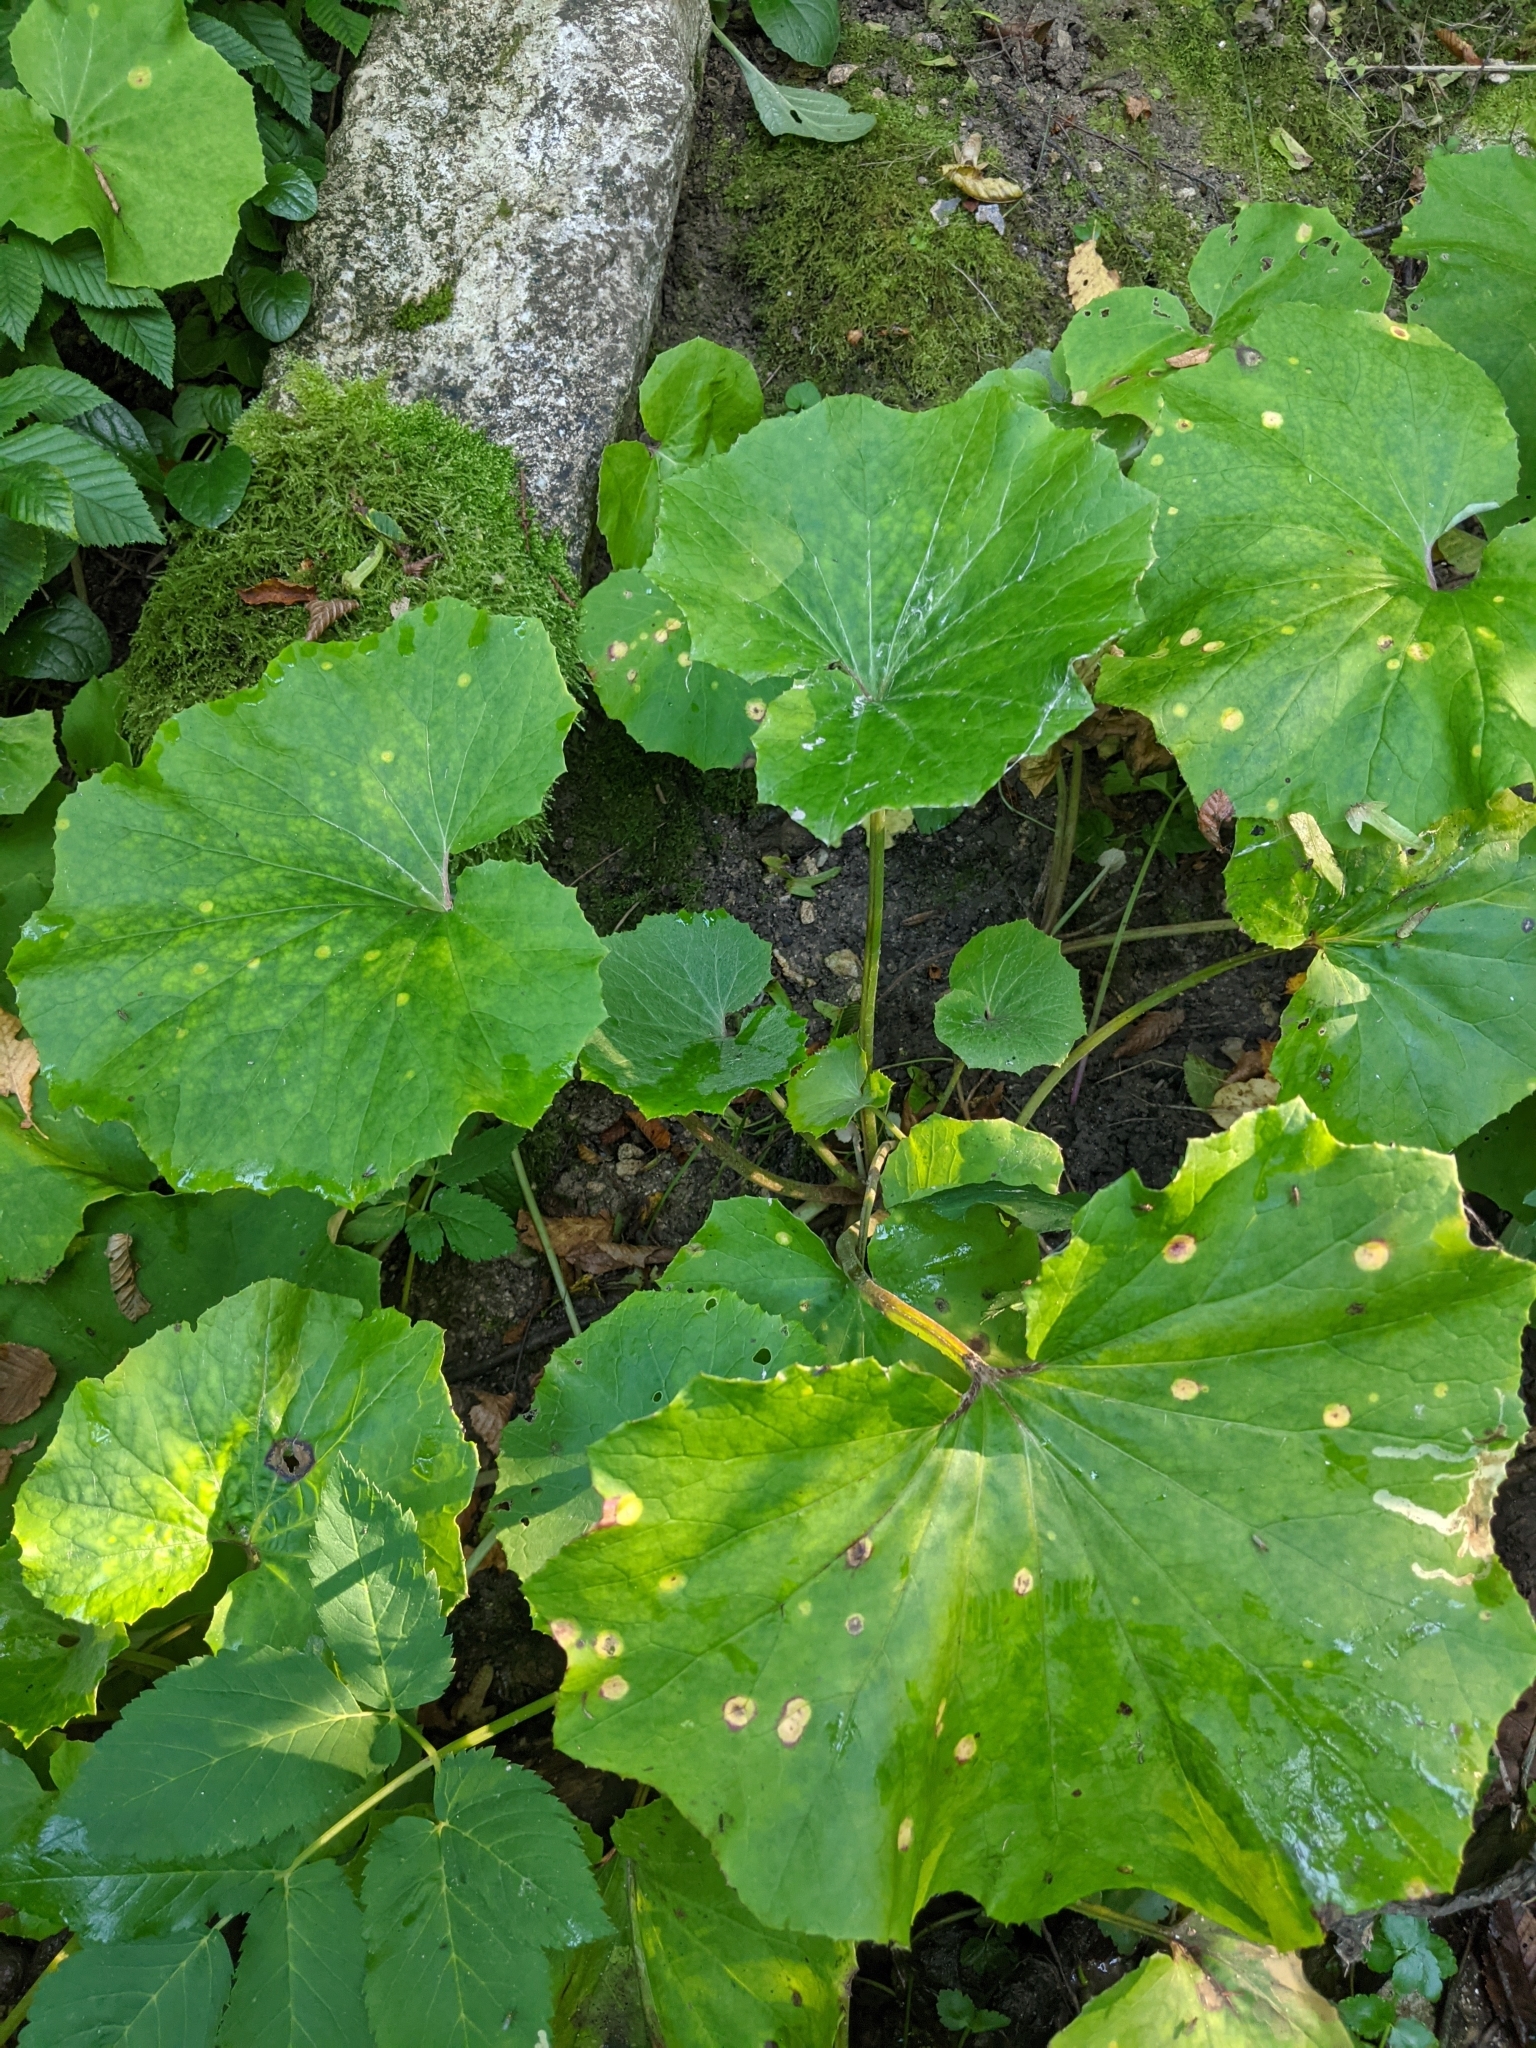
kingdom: Plantae
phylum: Tracheophyta
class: Magnoliopsida
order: Asterales
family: Asteraceae
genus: Tussilago
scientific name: Tussilago farfara
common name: Coltsfoot
